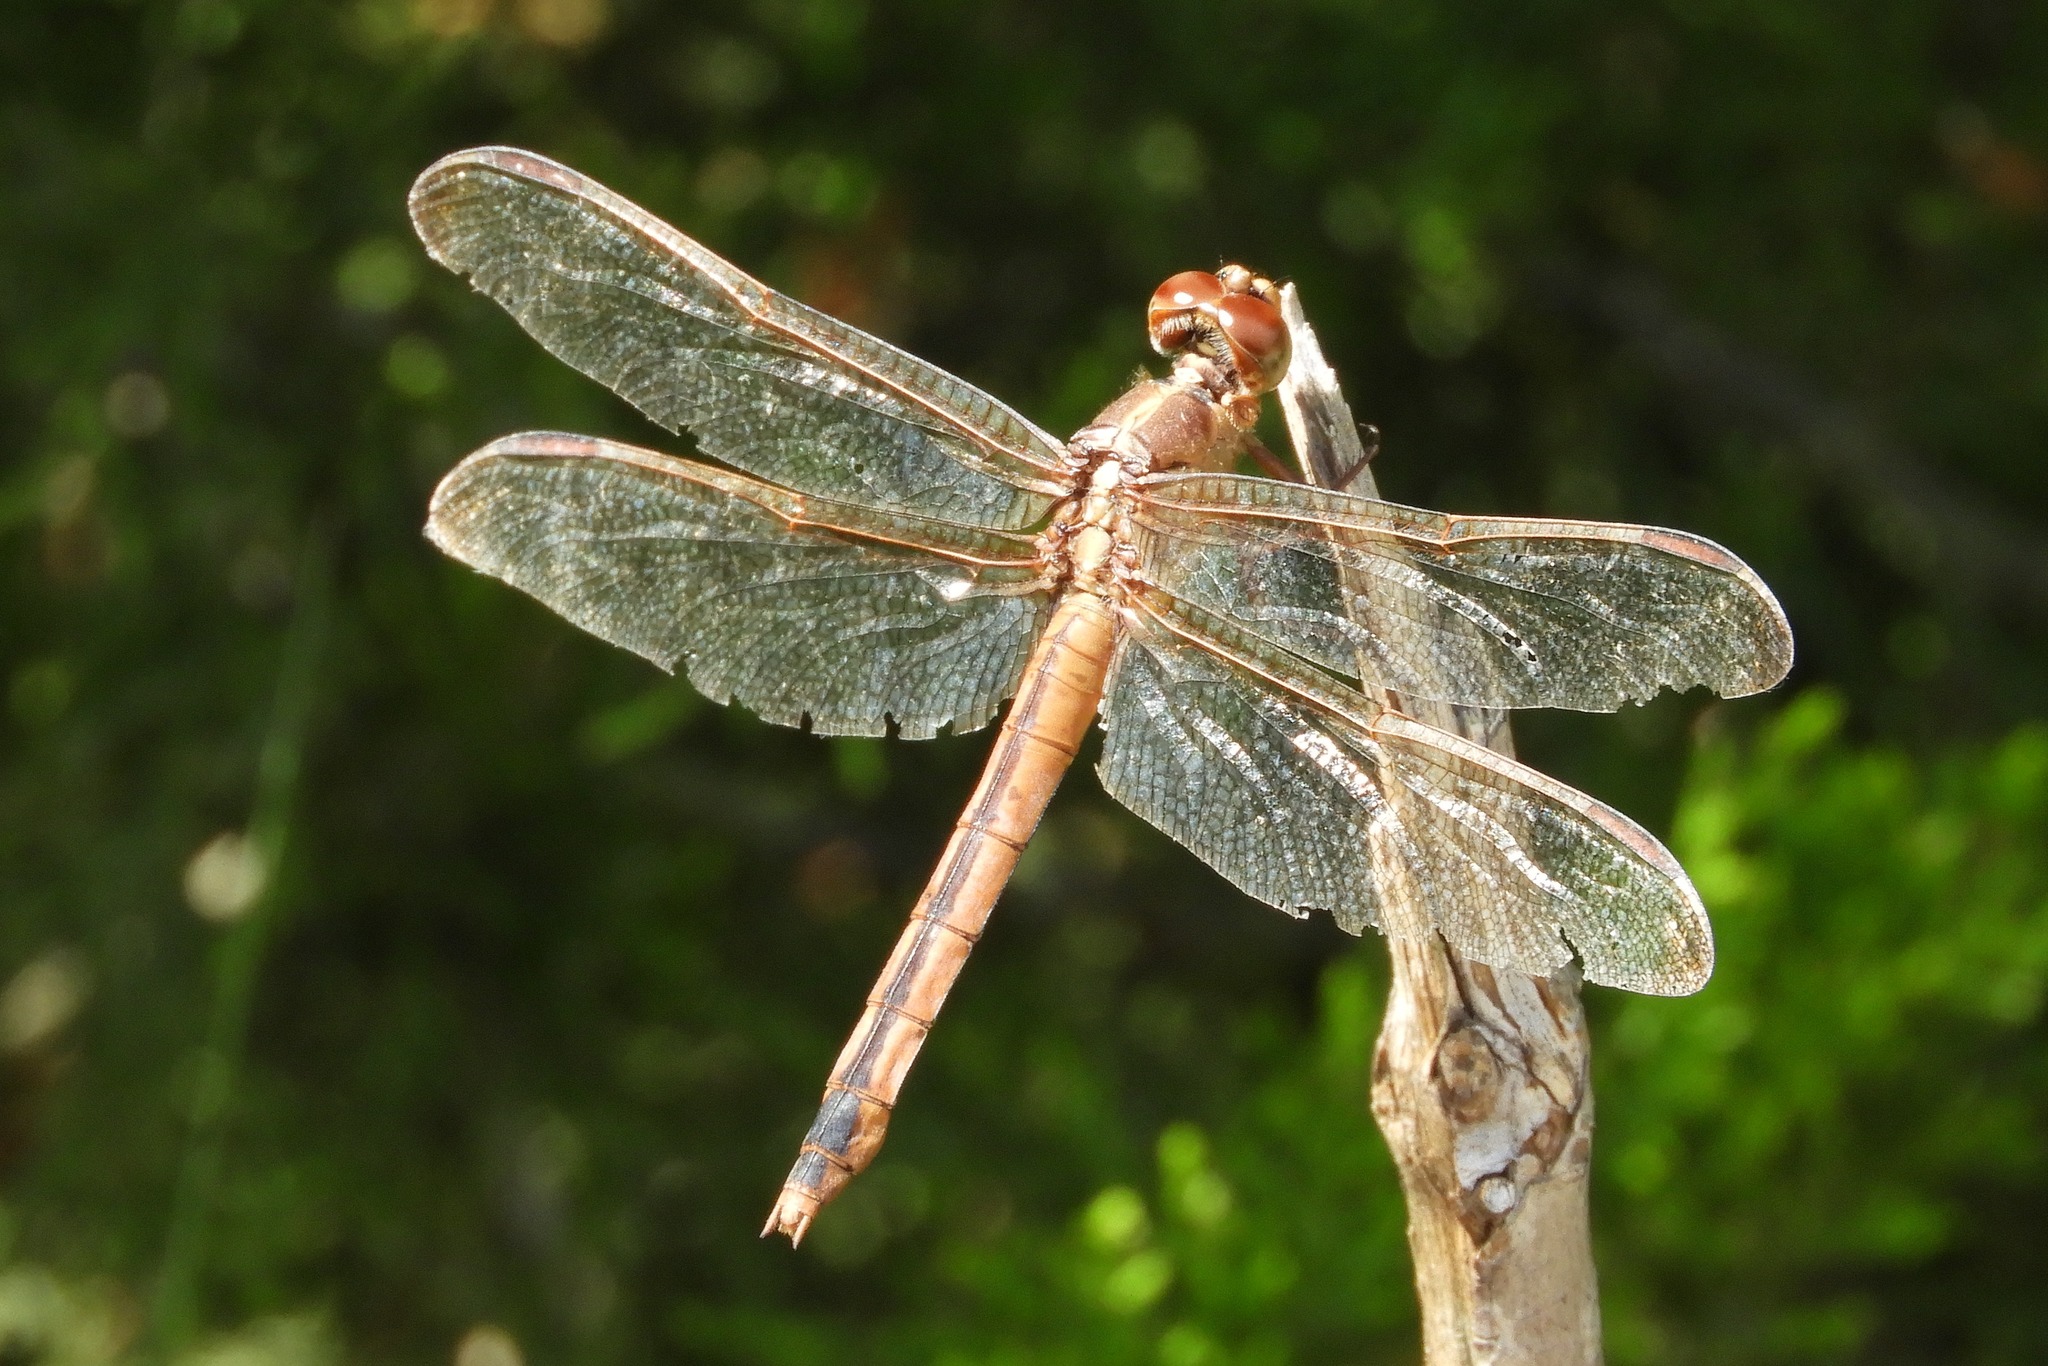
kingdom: Animalia
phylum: Arthropoda
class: Insecta
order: Odonata
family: Libellulidae
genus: Libellula
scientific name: Libellula needhami
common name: Needham's skimmer
